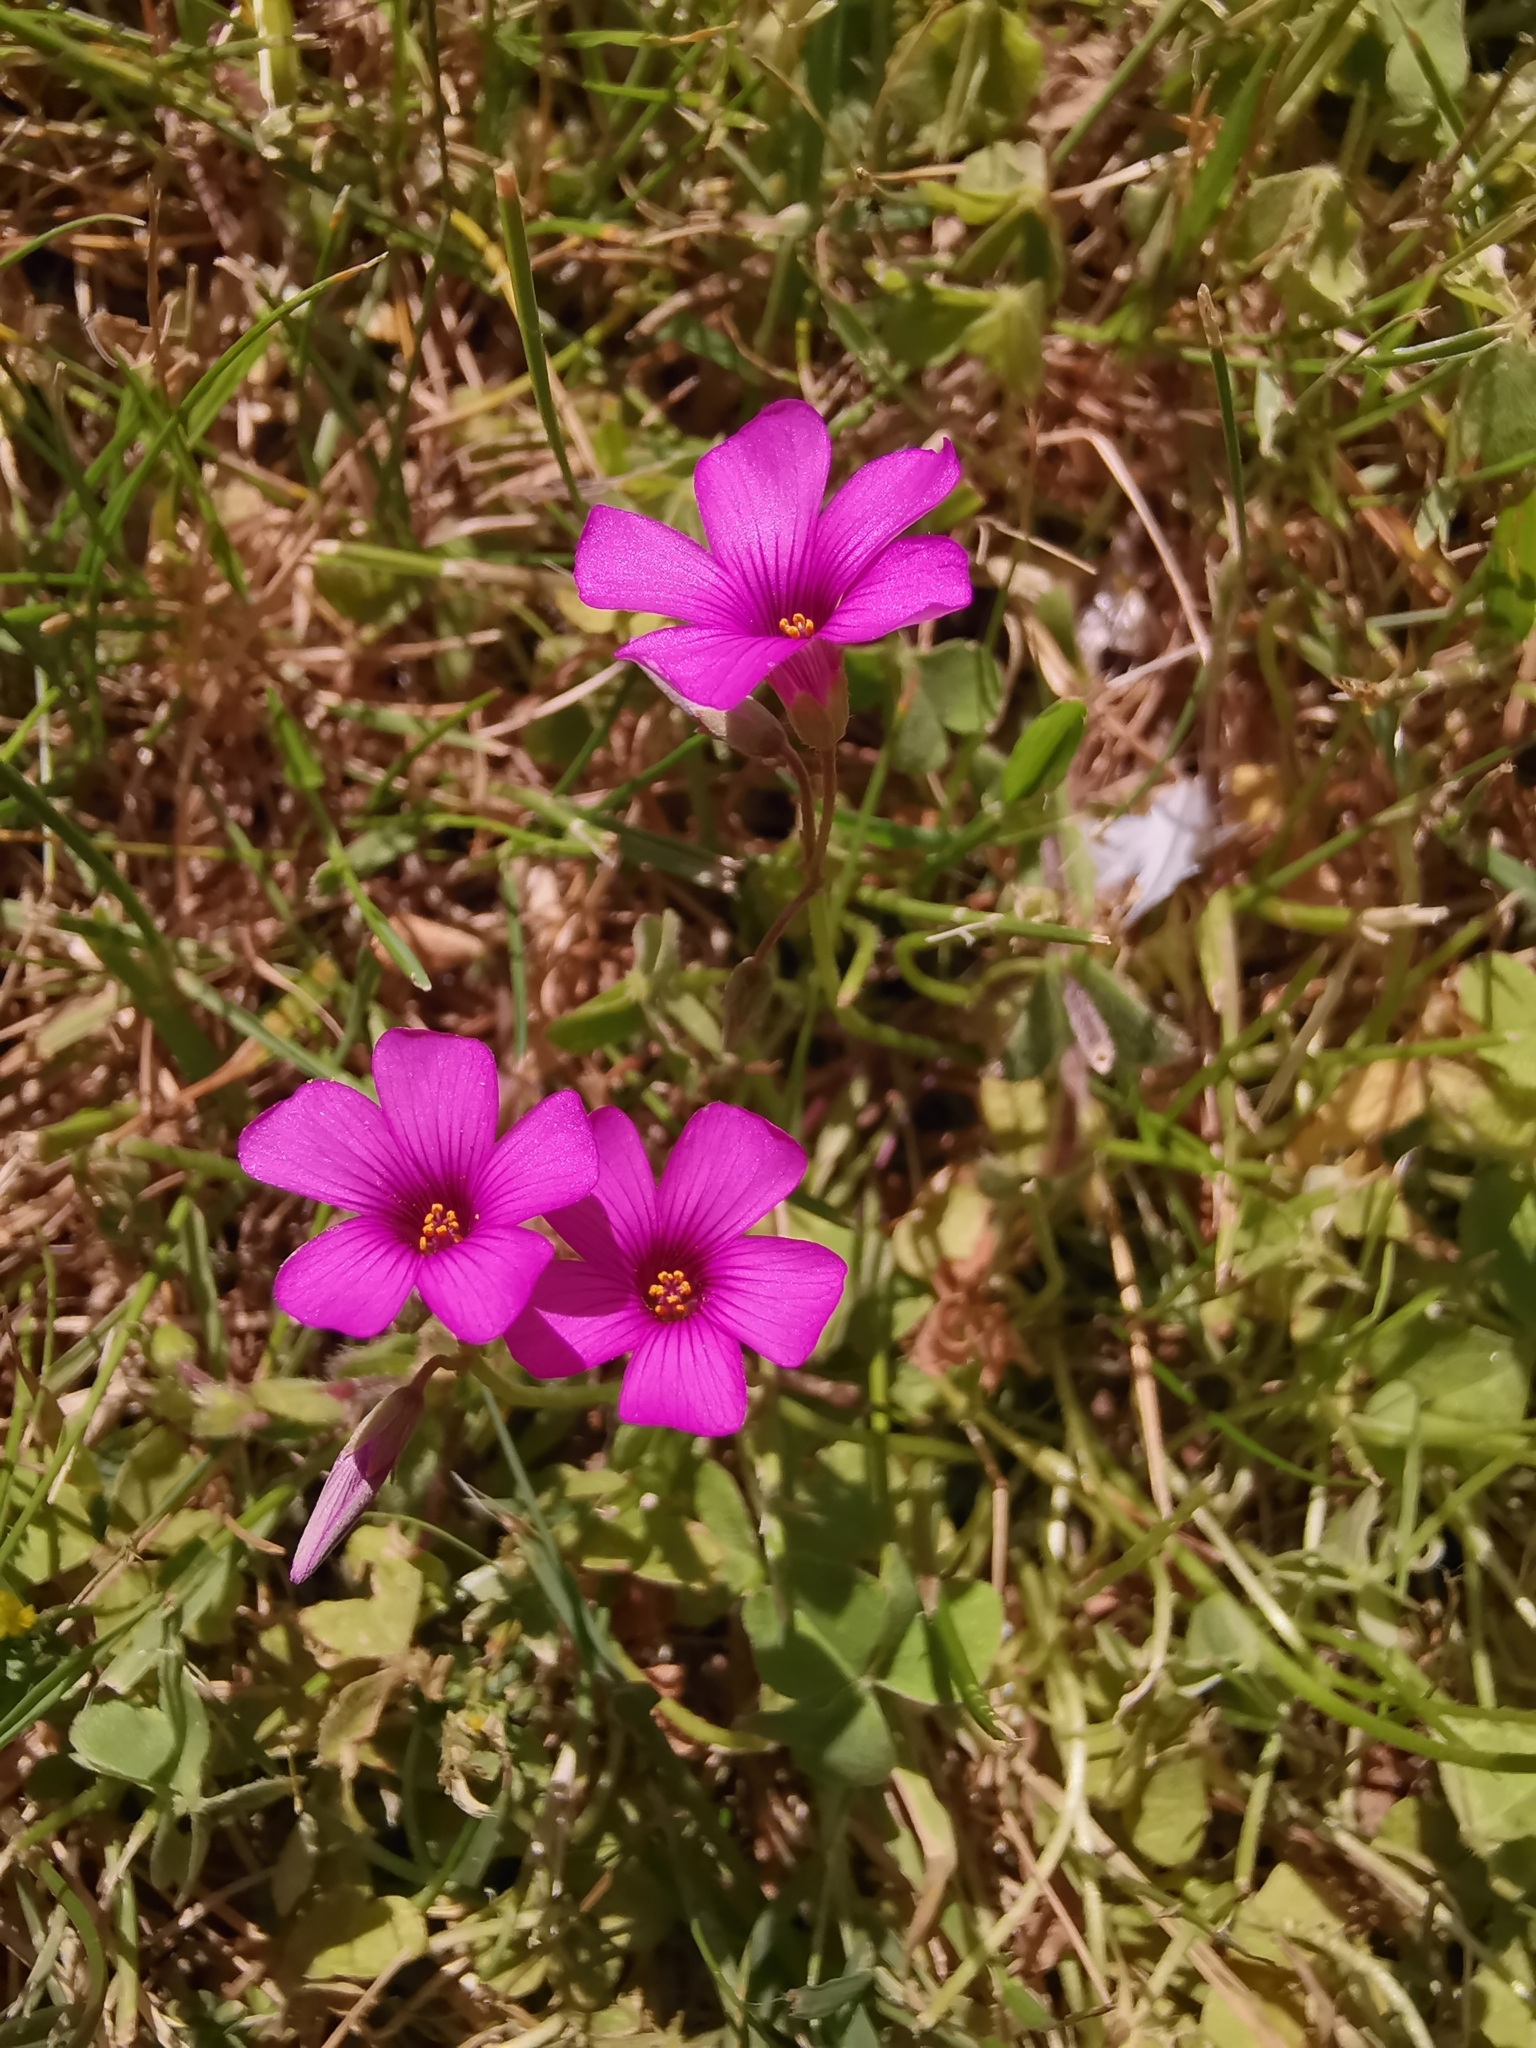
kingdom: Plantae
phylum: Tracheophyta
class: Magnoliopsida
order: Oxalidales
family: Oxalidaceae
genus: Oxalis
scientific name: Oxalis articulata
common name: Pink-sorrel
